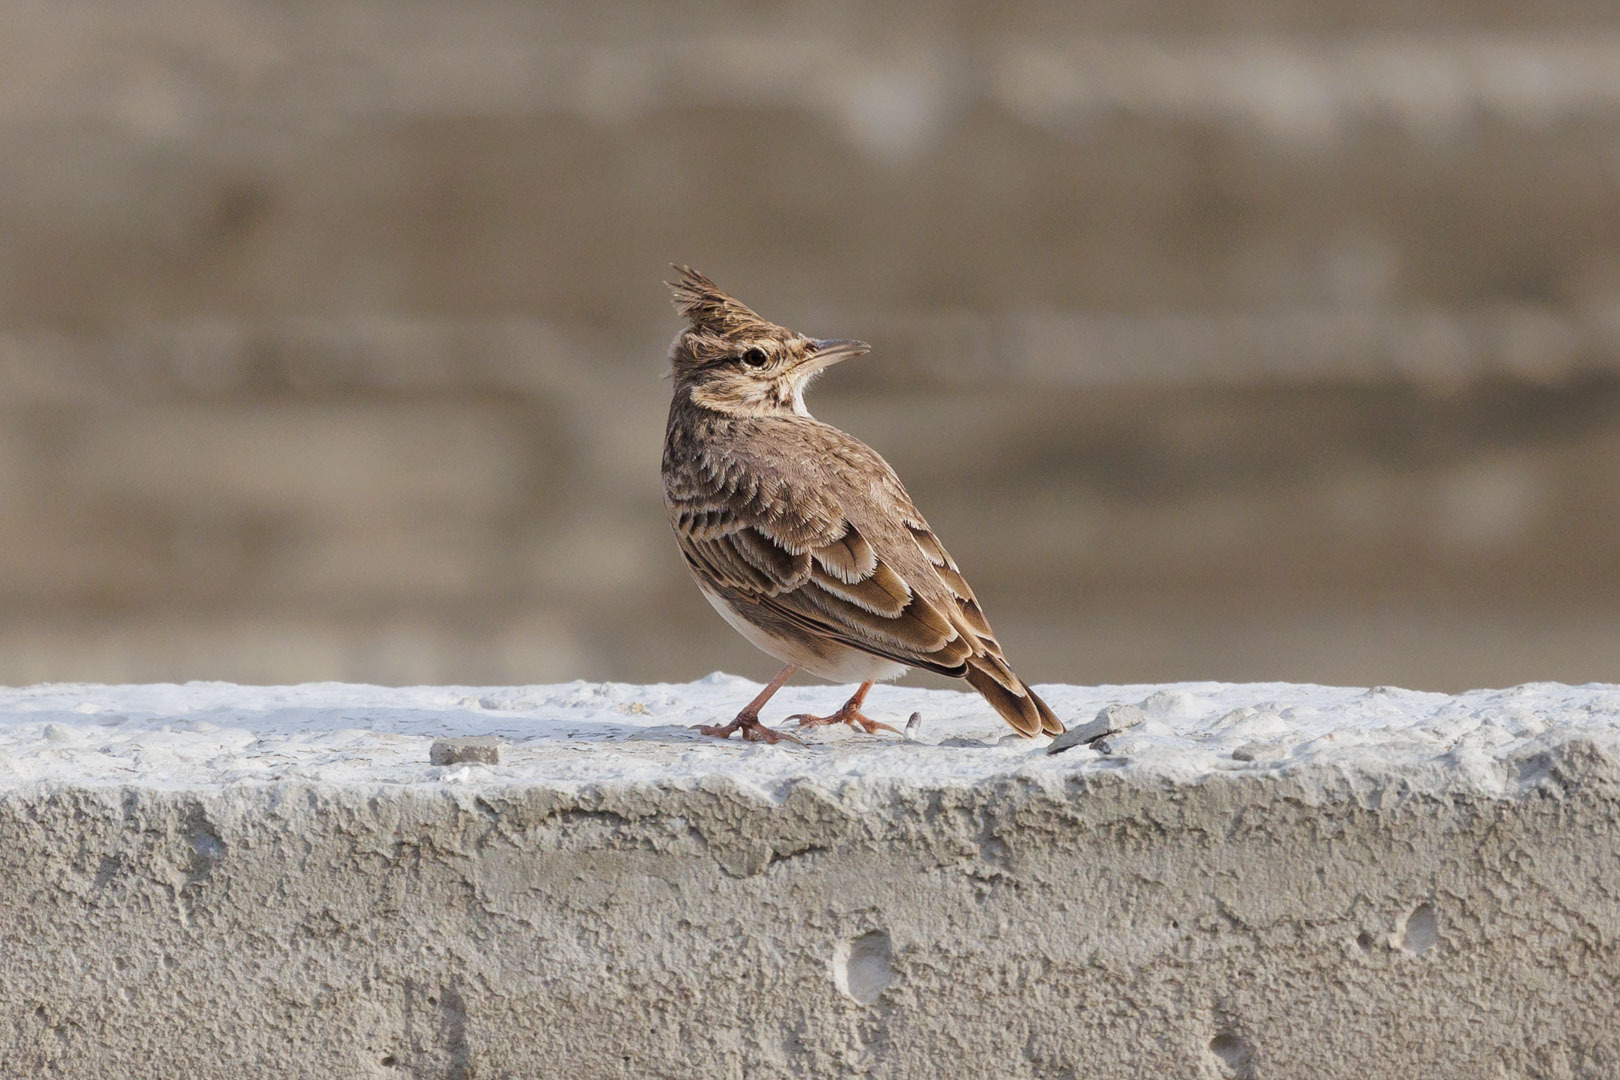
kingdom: Animalia
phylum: Chordata
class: Aves
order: Passeriformes
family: Alaudidae
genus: Galerida
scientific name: Galerida cristata
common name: Crested lark
